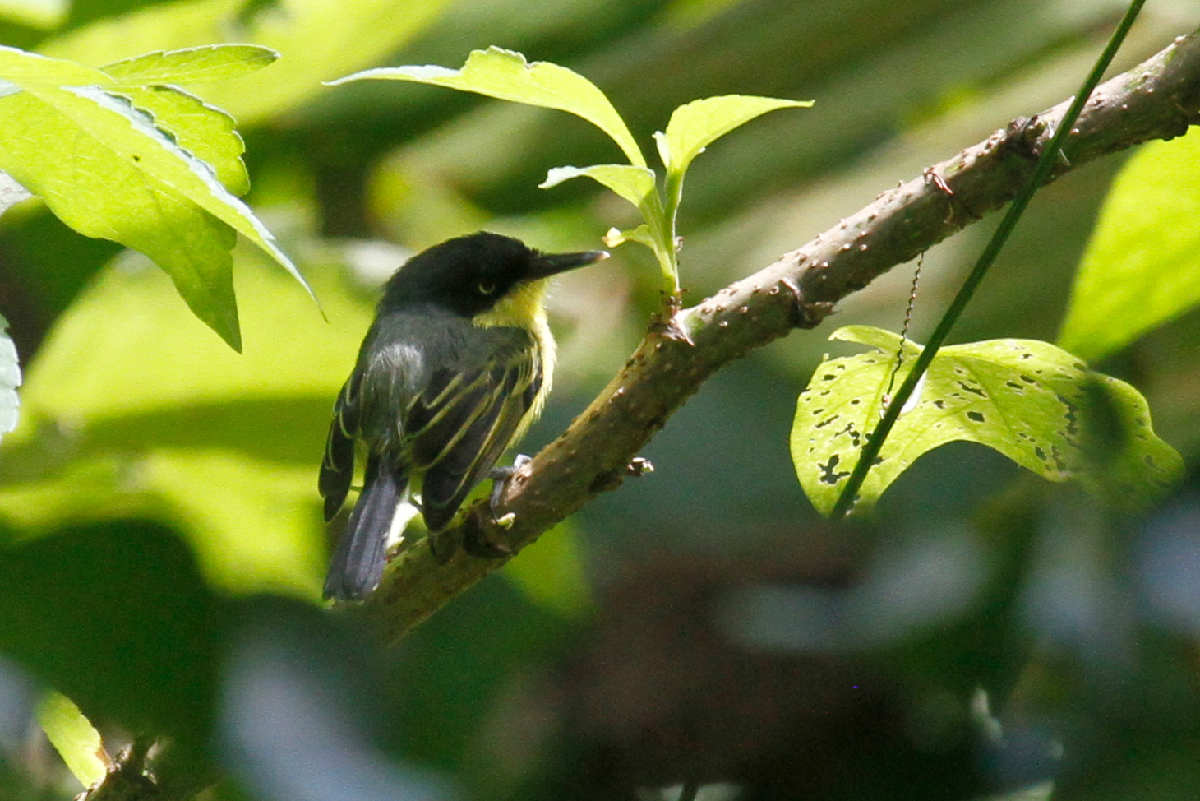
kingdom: Animalia
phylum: Chordata
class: Aves
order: Passeriformes
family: Tyrannidae
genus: Todirostrum
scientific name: Todirostrum cinereum
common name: Common tody-flycatcher
